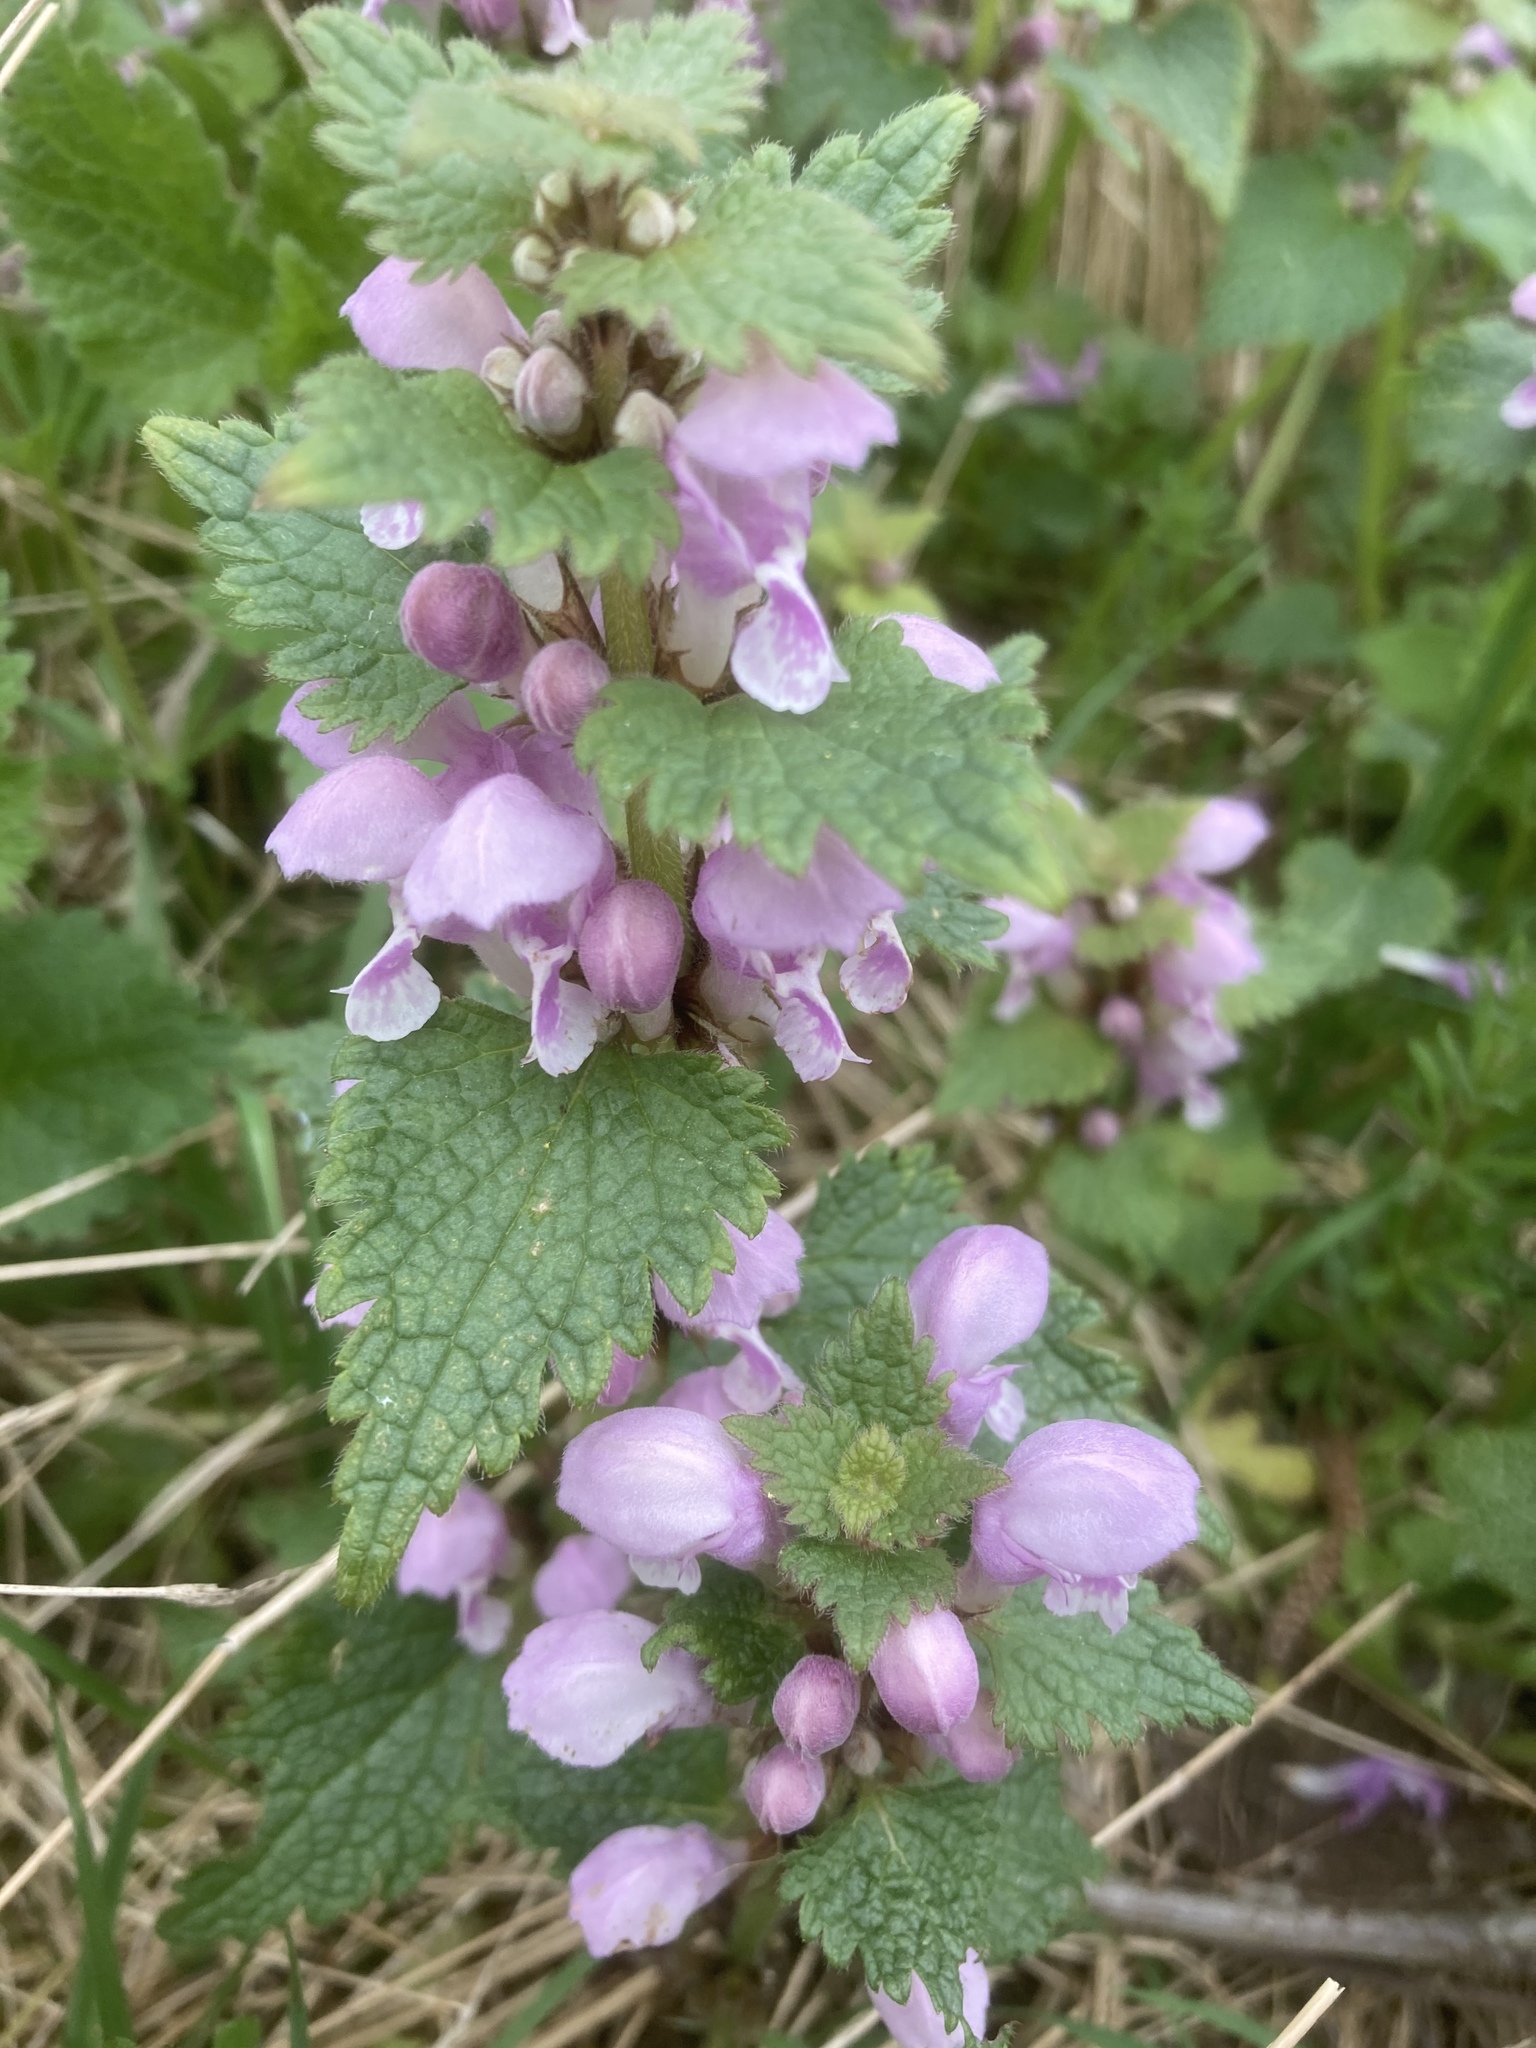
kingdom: Plantae
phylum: Tracheophyta
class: Magnoliopsida
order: Lamiales
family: Lamiaceae
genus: Lamium
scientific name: Lamium maculatum
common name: Spotted dead-nettle
